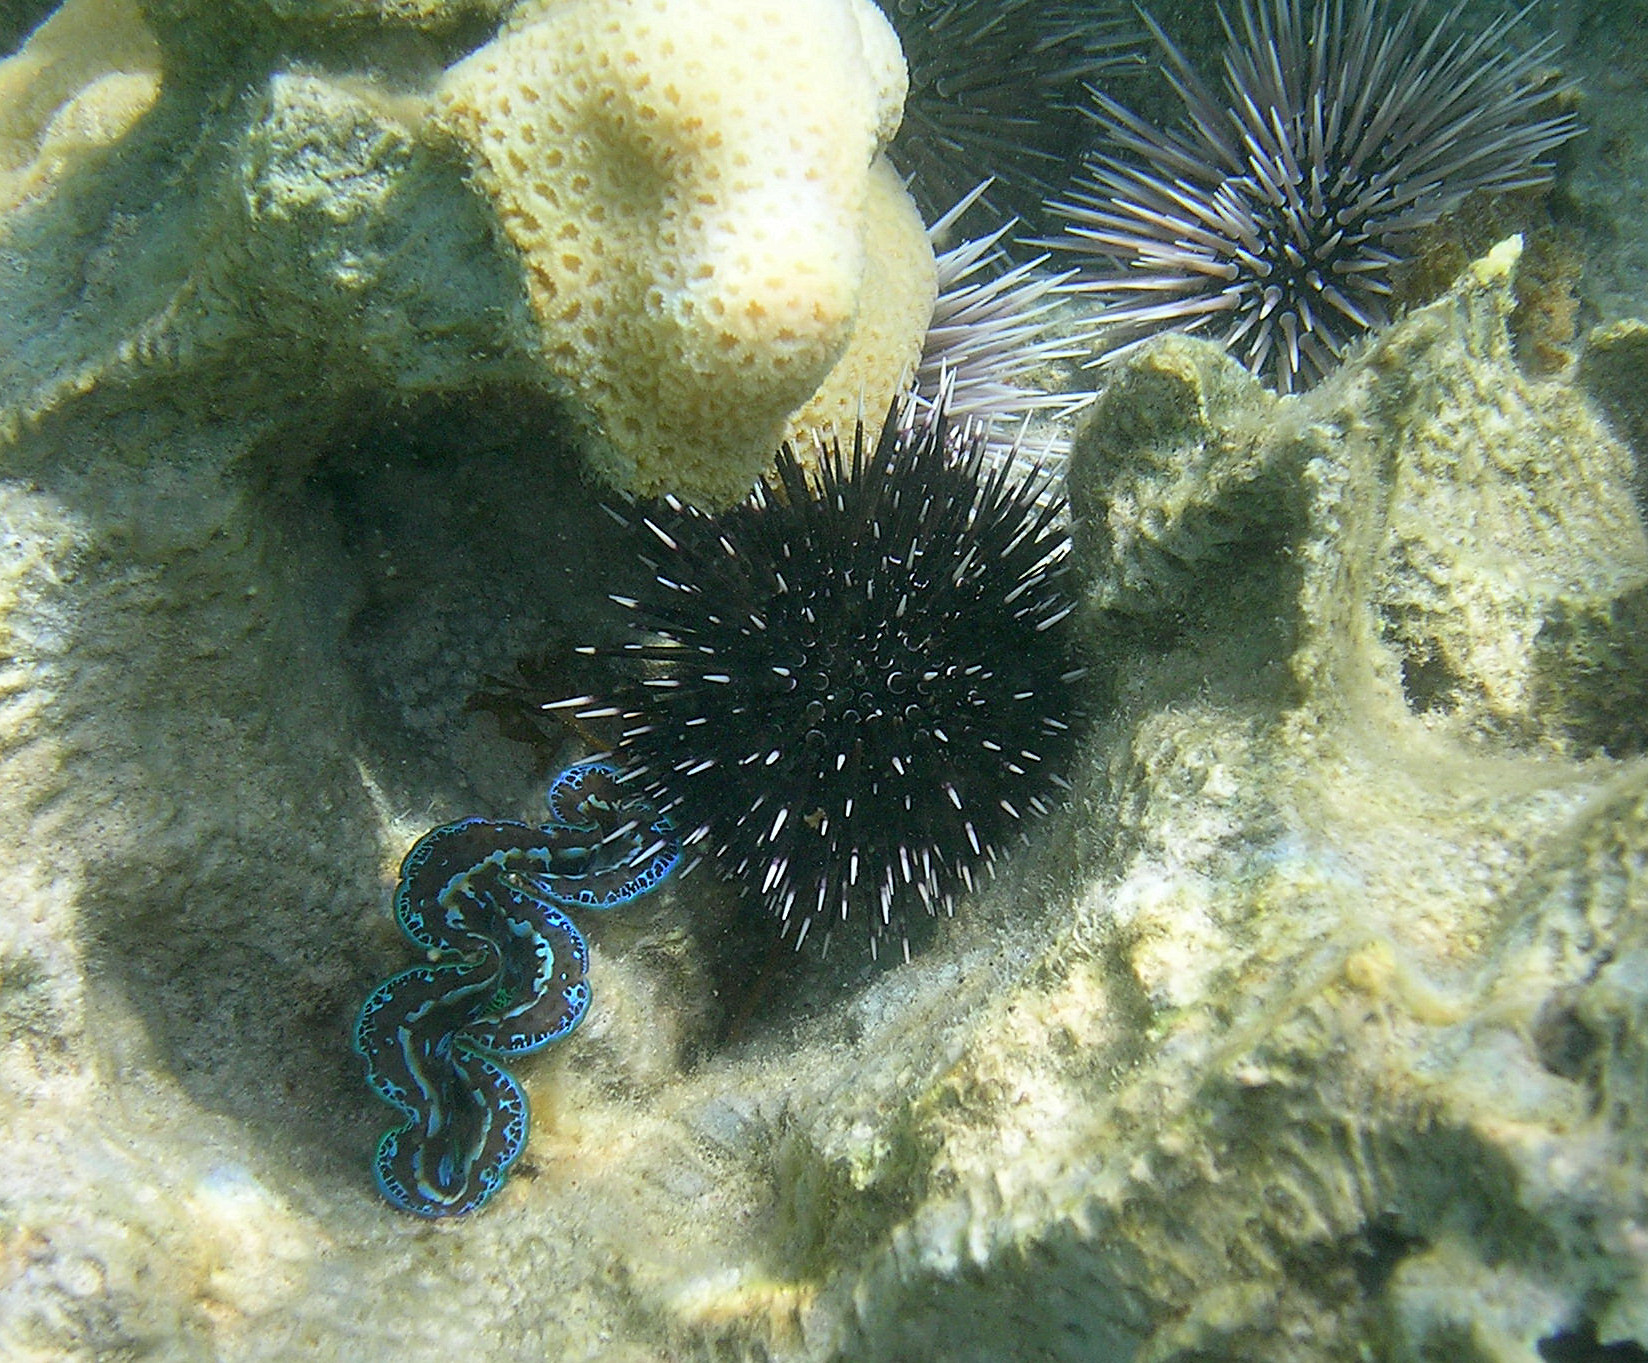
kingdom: Animalia
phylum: Mollusca
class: Bivalvia
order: Cardiida
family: Cardiidae
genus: Tridacna
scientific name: Tridacna maxima
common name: Small giant clam
